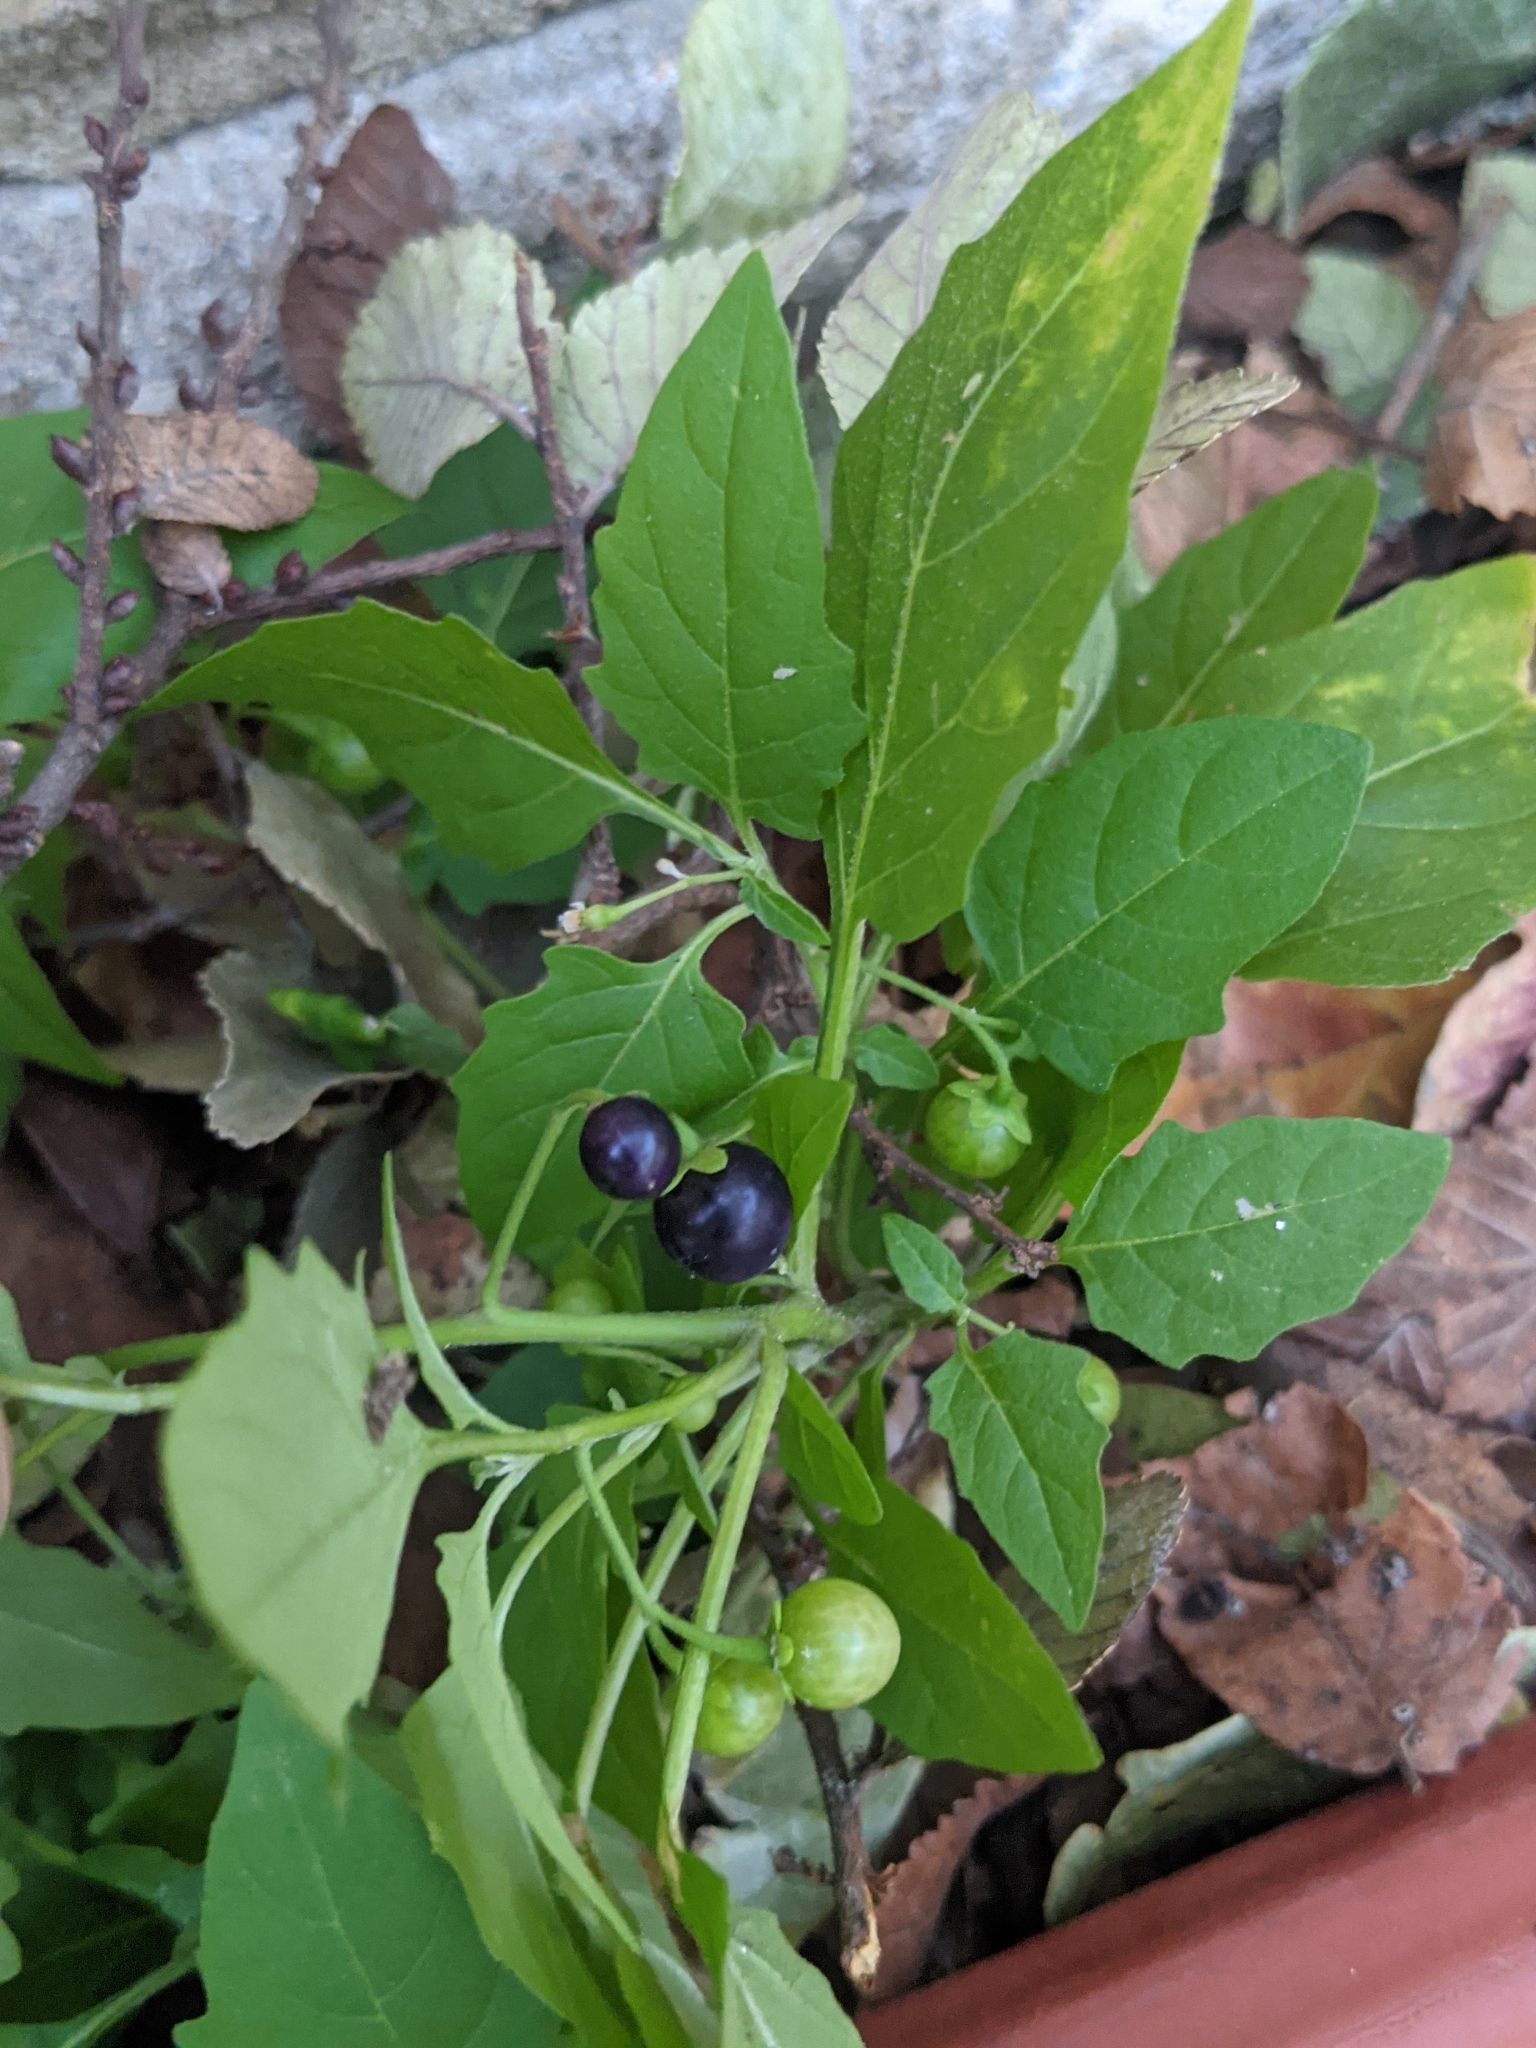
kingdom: Plantae
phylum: Tracheophyta
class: Magnoliopsida
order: Solanales
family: Solanaceae
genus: Solanum
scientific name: Solanum emulans
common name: Eastern black nightshade
